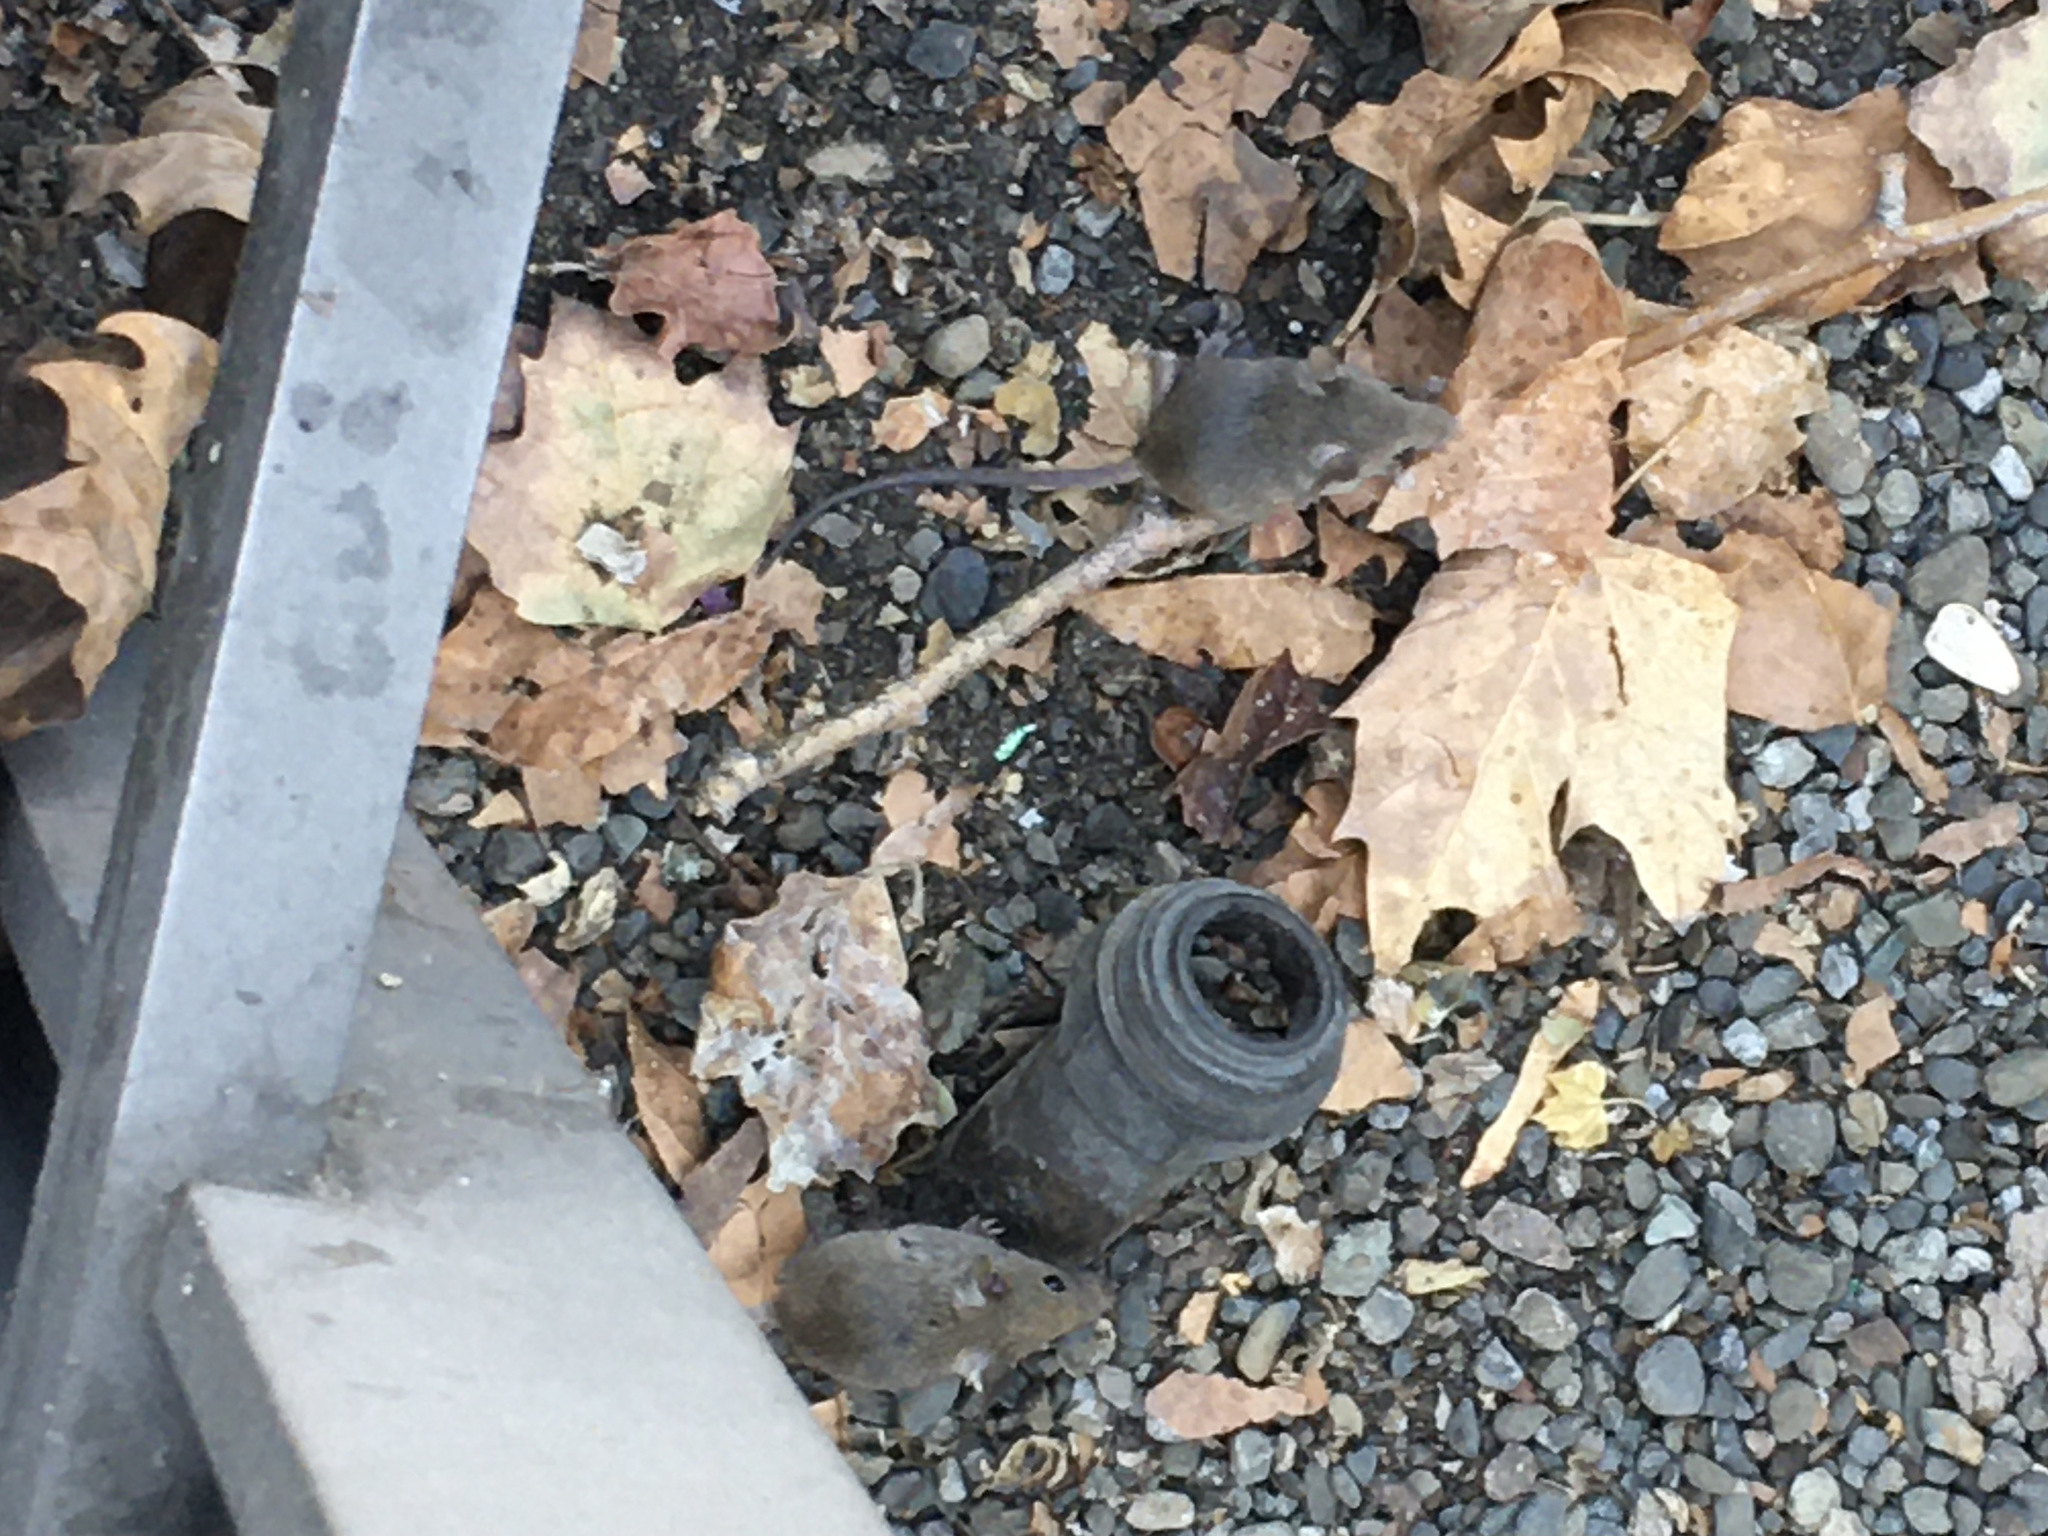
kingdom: Animalia
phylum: Chordata
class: Mammalia
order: Rodentia
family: Muridae
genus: Mus
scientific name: Mus musculus
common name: House mouse
